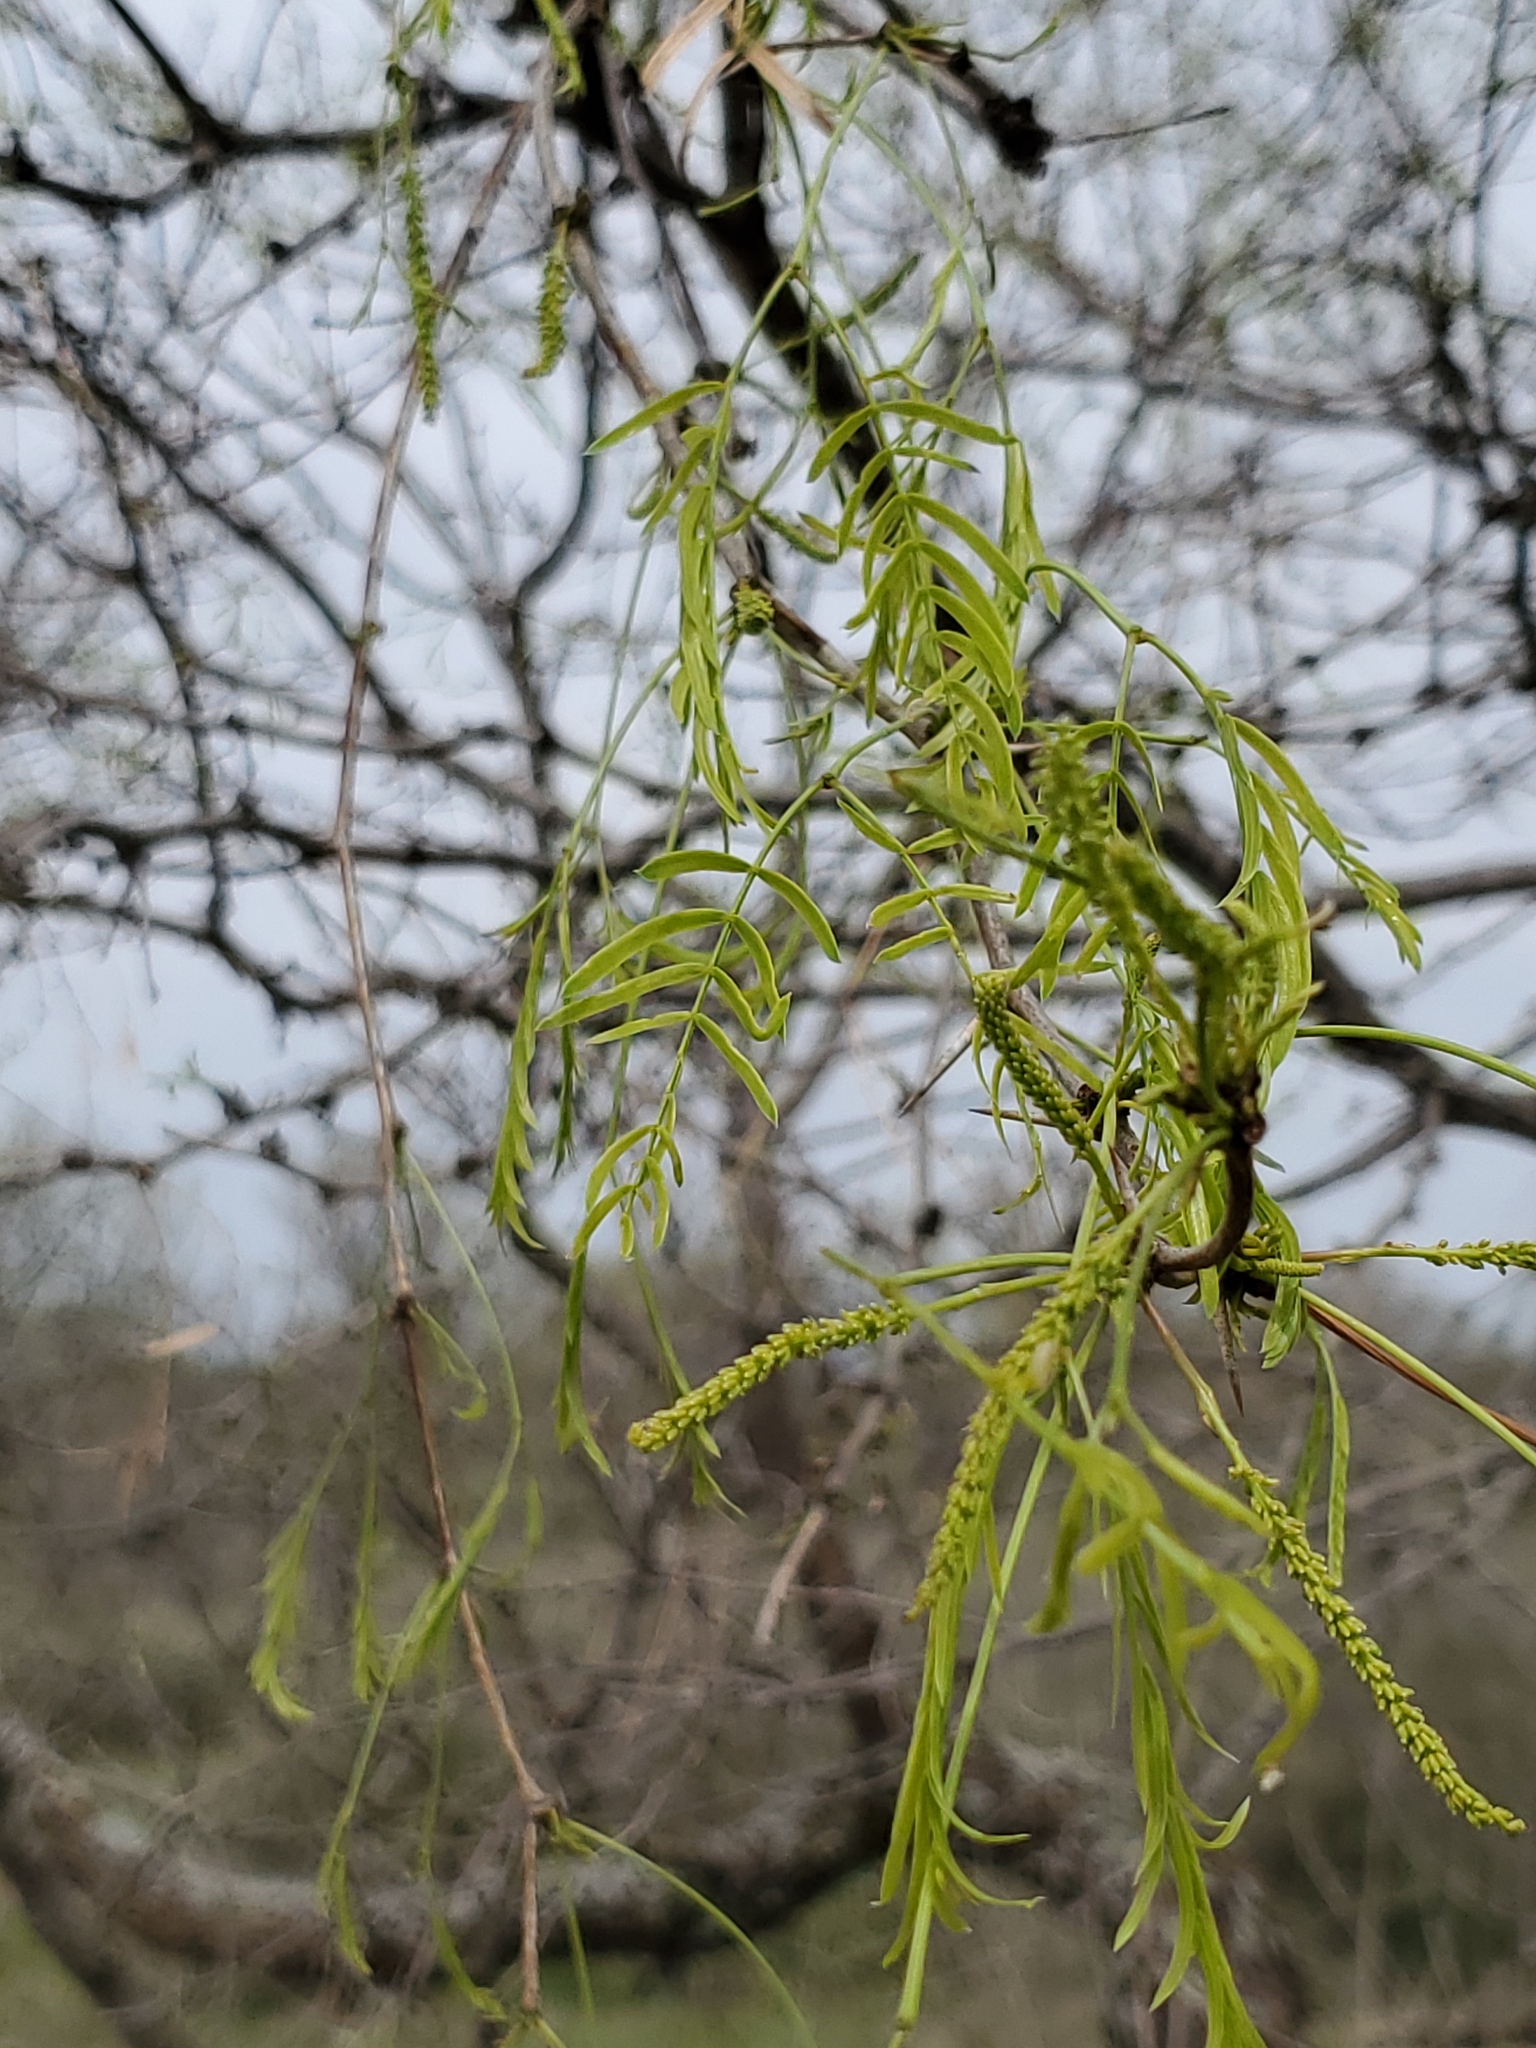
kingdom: Plantae
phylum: Tracheophyta
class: Magnoliopsida
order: Fabales
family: Fabaceae
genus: Prosopis
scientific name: Prosopis glandulosa
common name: Honey mesquite
